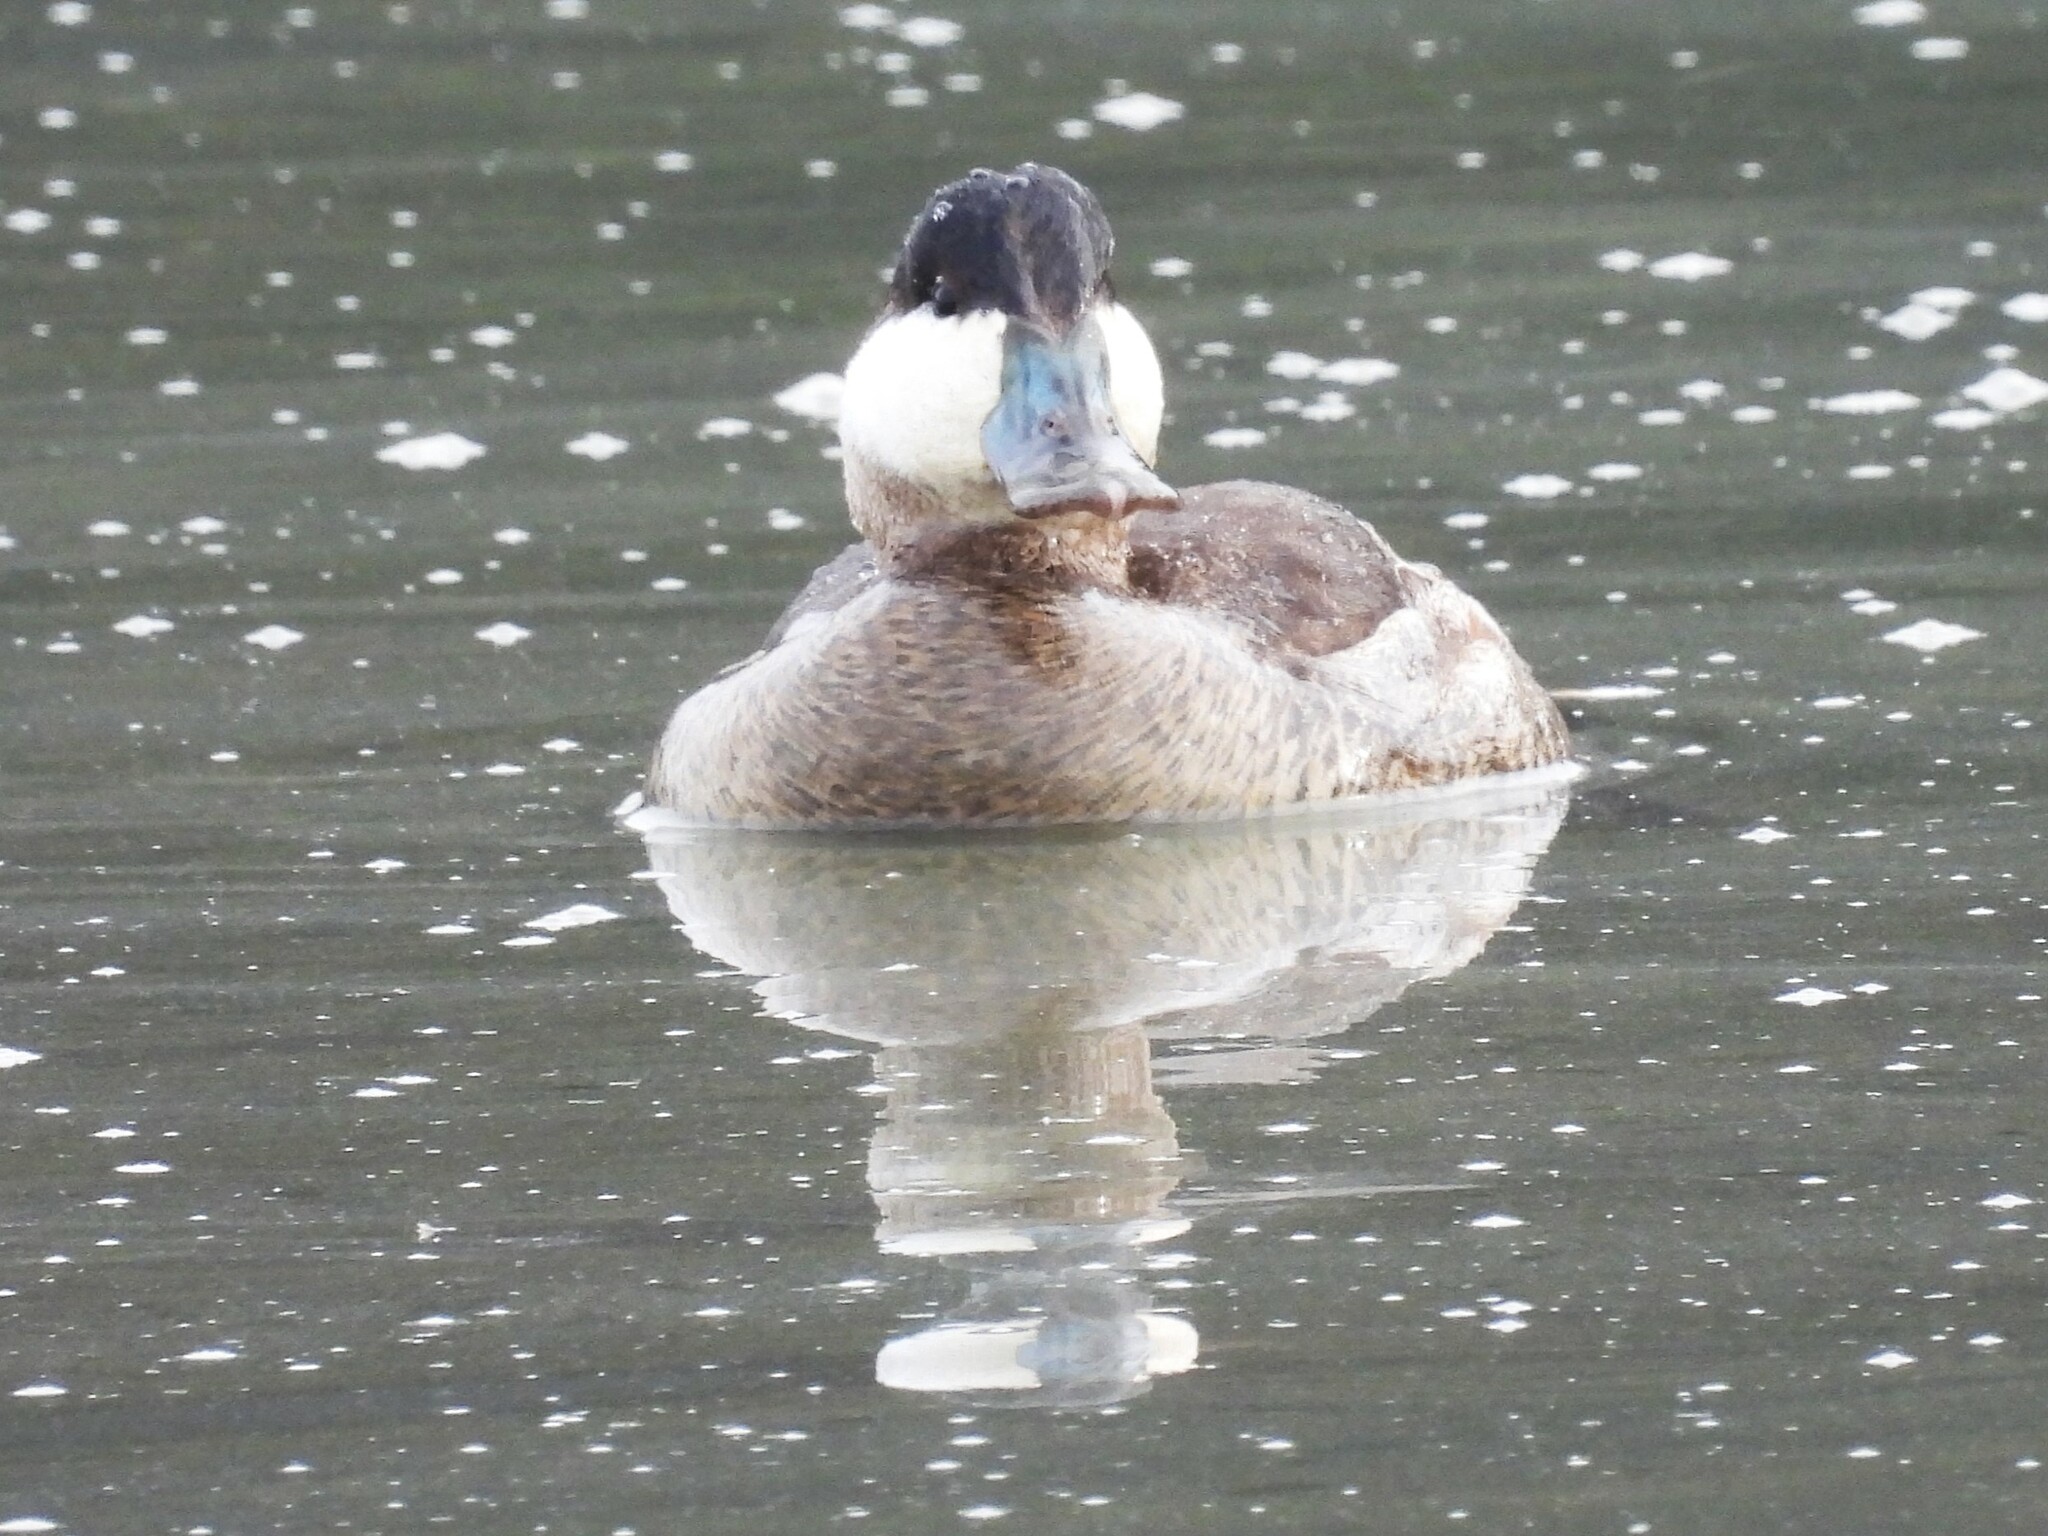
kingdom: Animalia
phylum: Chordata
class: Aves
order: Anseriformes
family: Anatidae
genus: Oxyura
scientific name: Oxyura jamaicensis
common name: Ruddy duck
